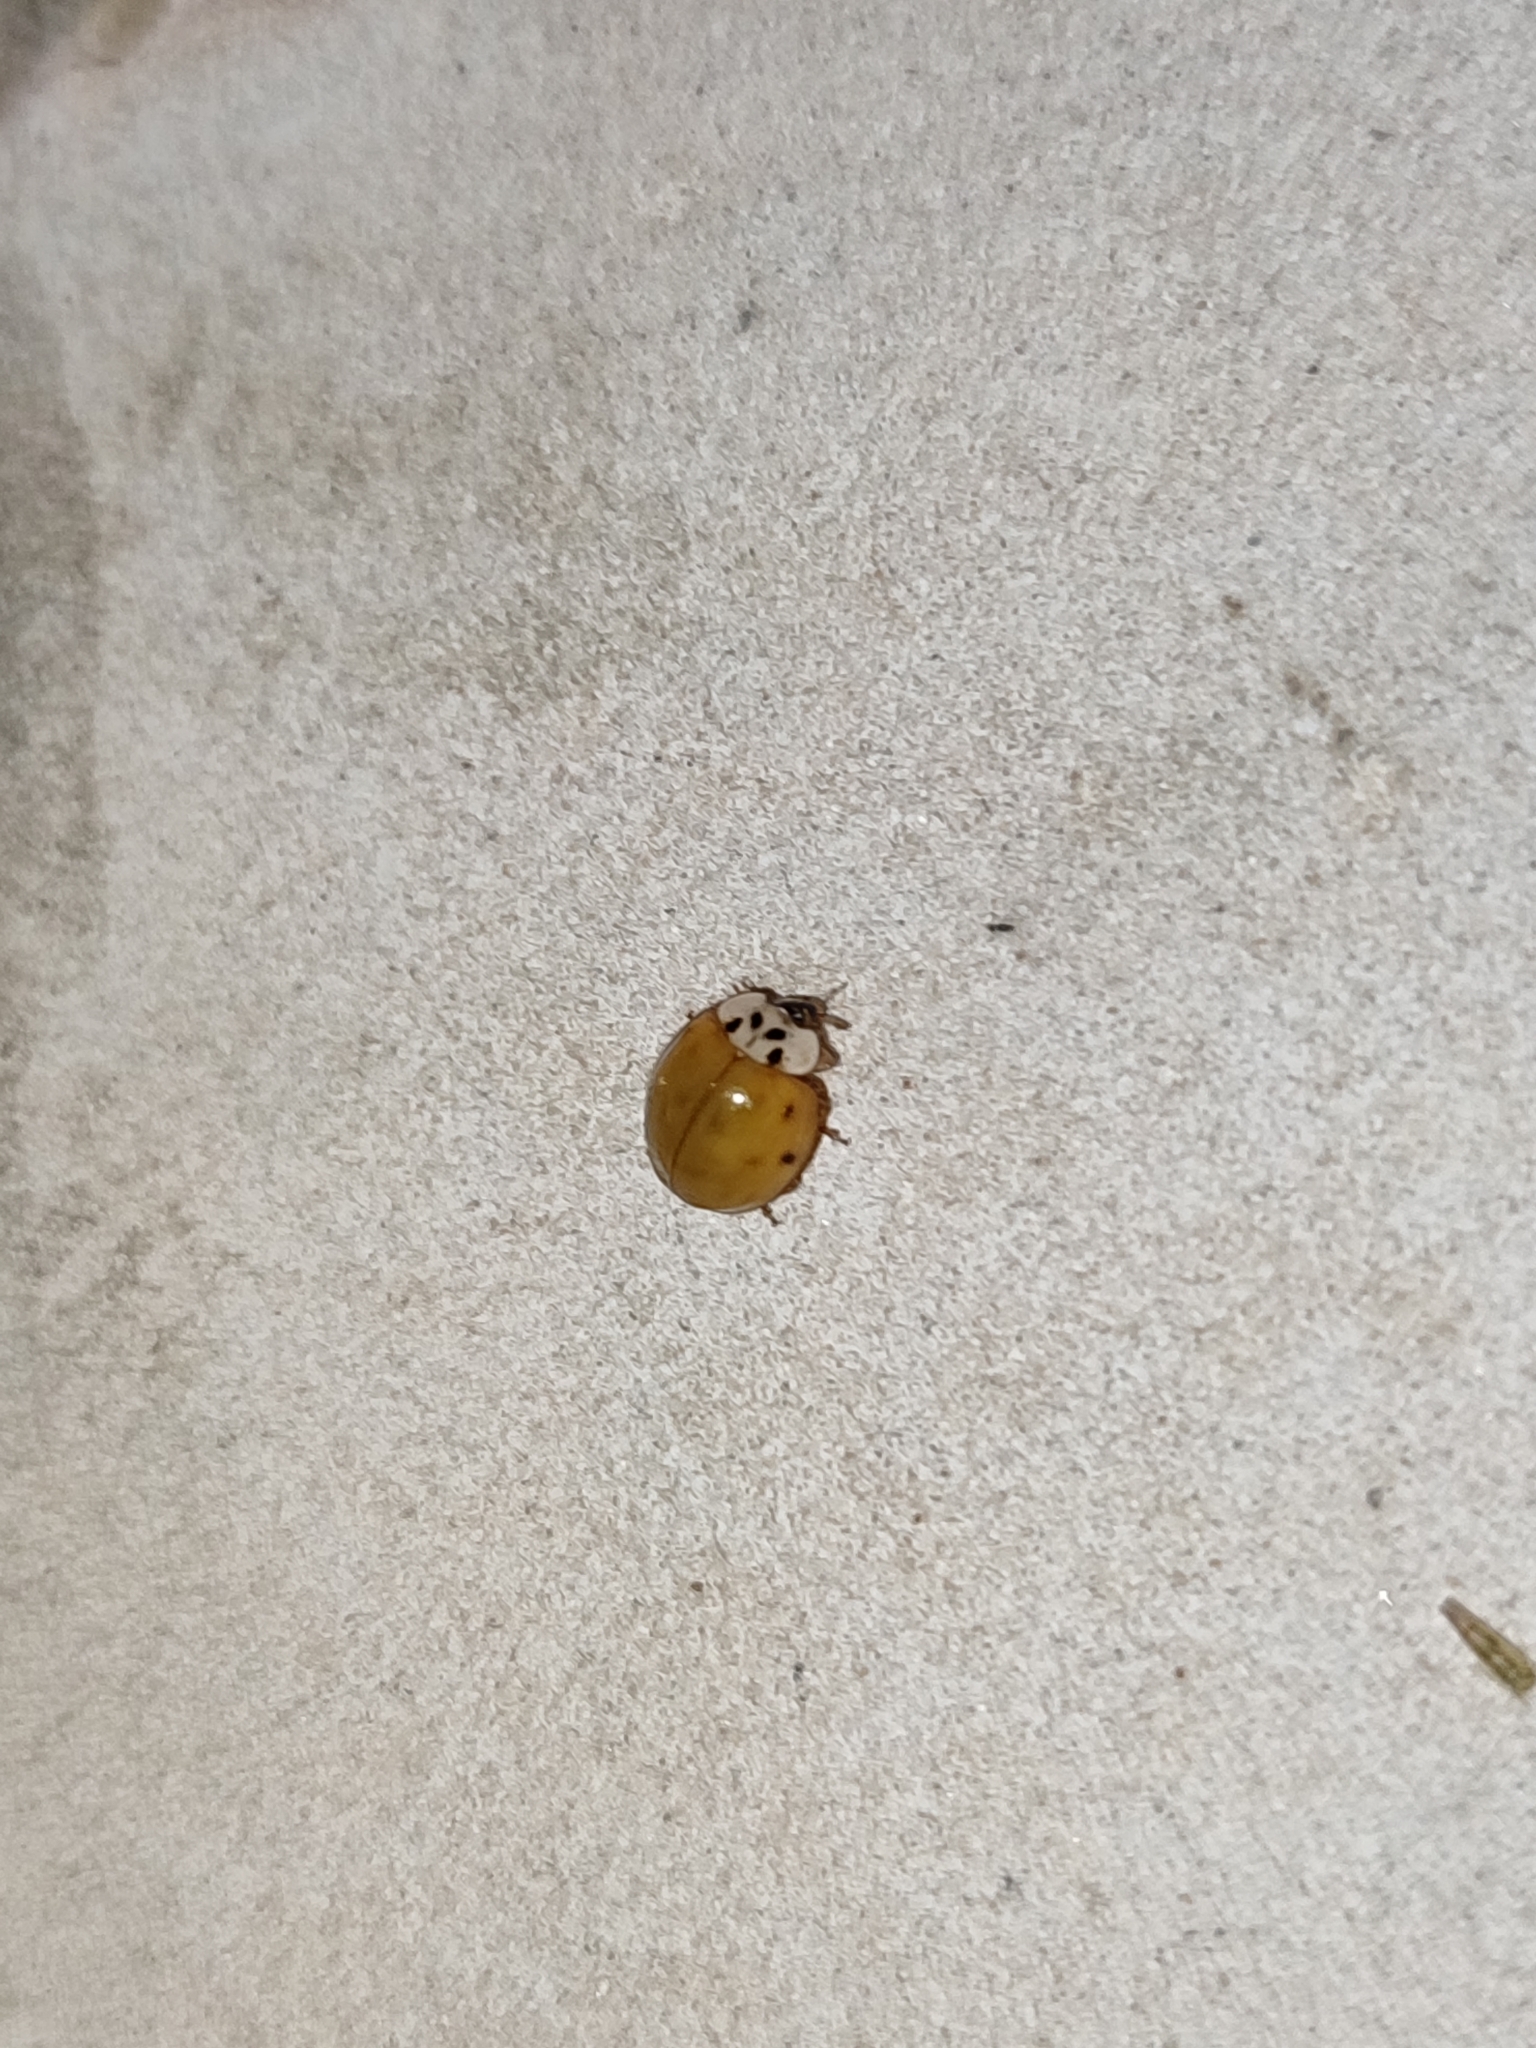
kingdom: Animalia
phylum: Arthropoda
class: Insecta
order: Coleoptera
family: Coccinellidae
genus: Harmonia
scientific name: Harmonia axyridis
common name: Harlequin ladybird
